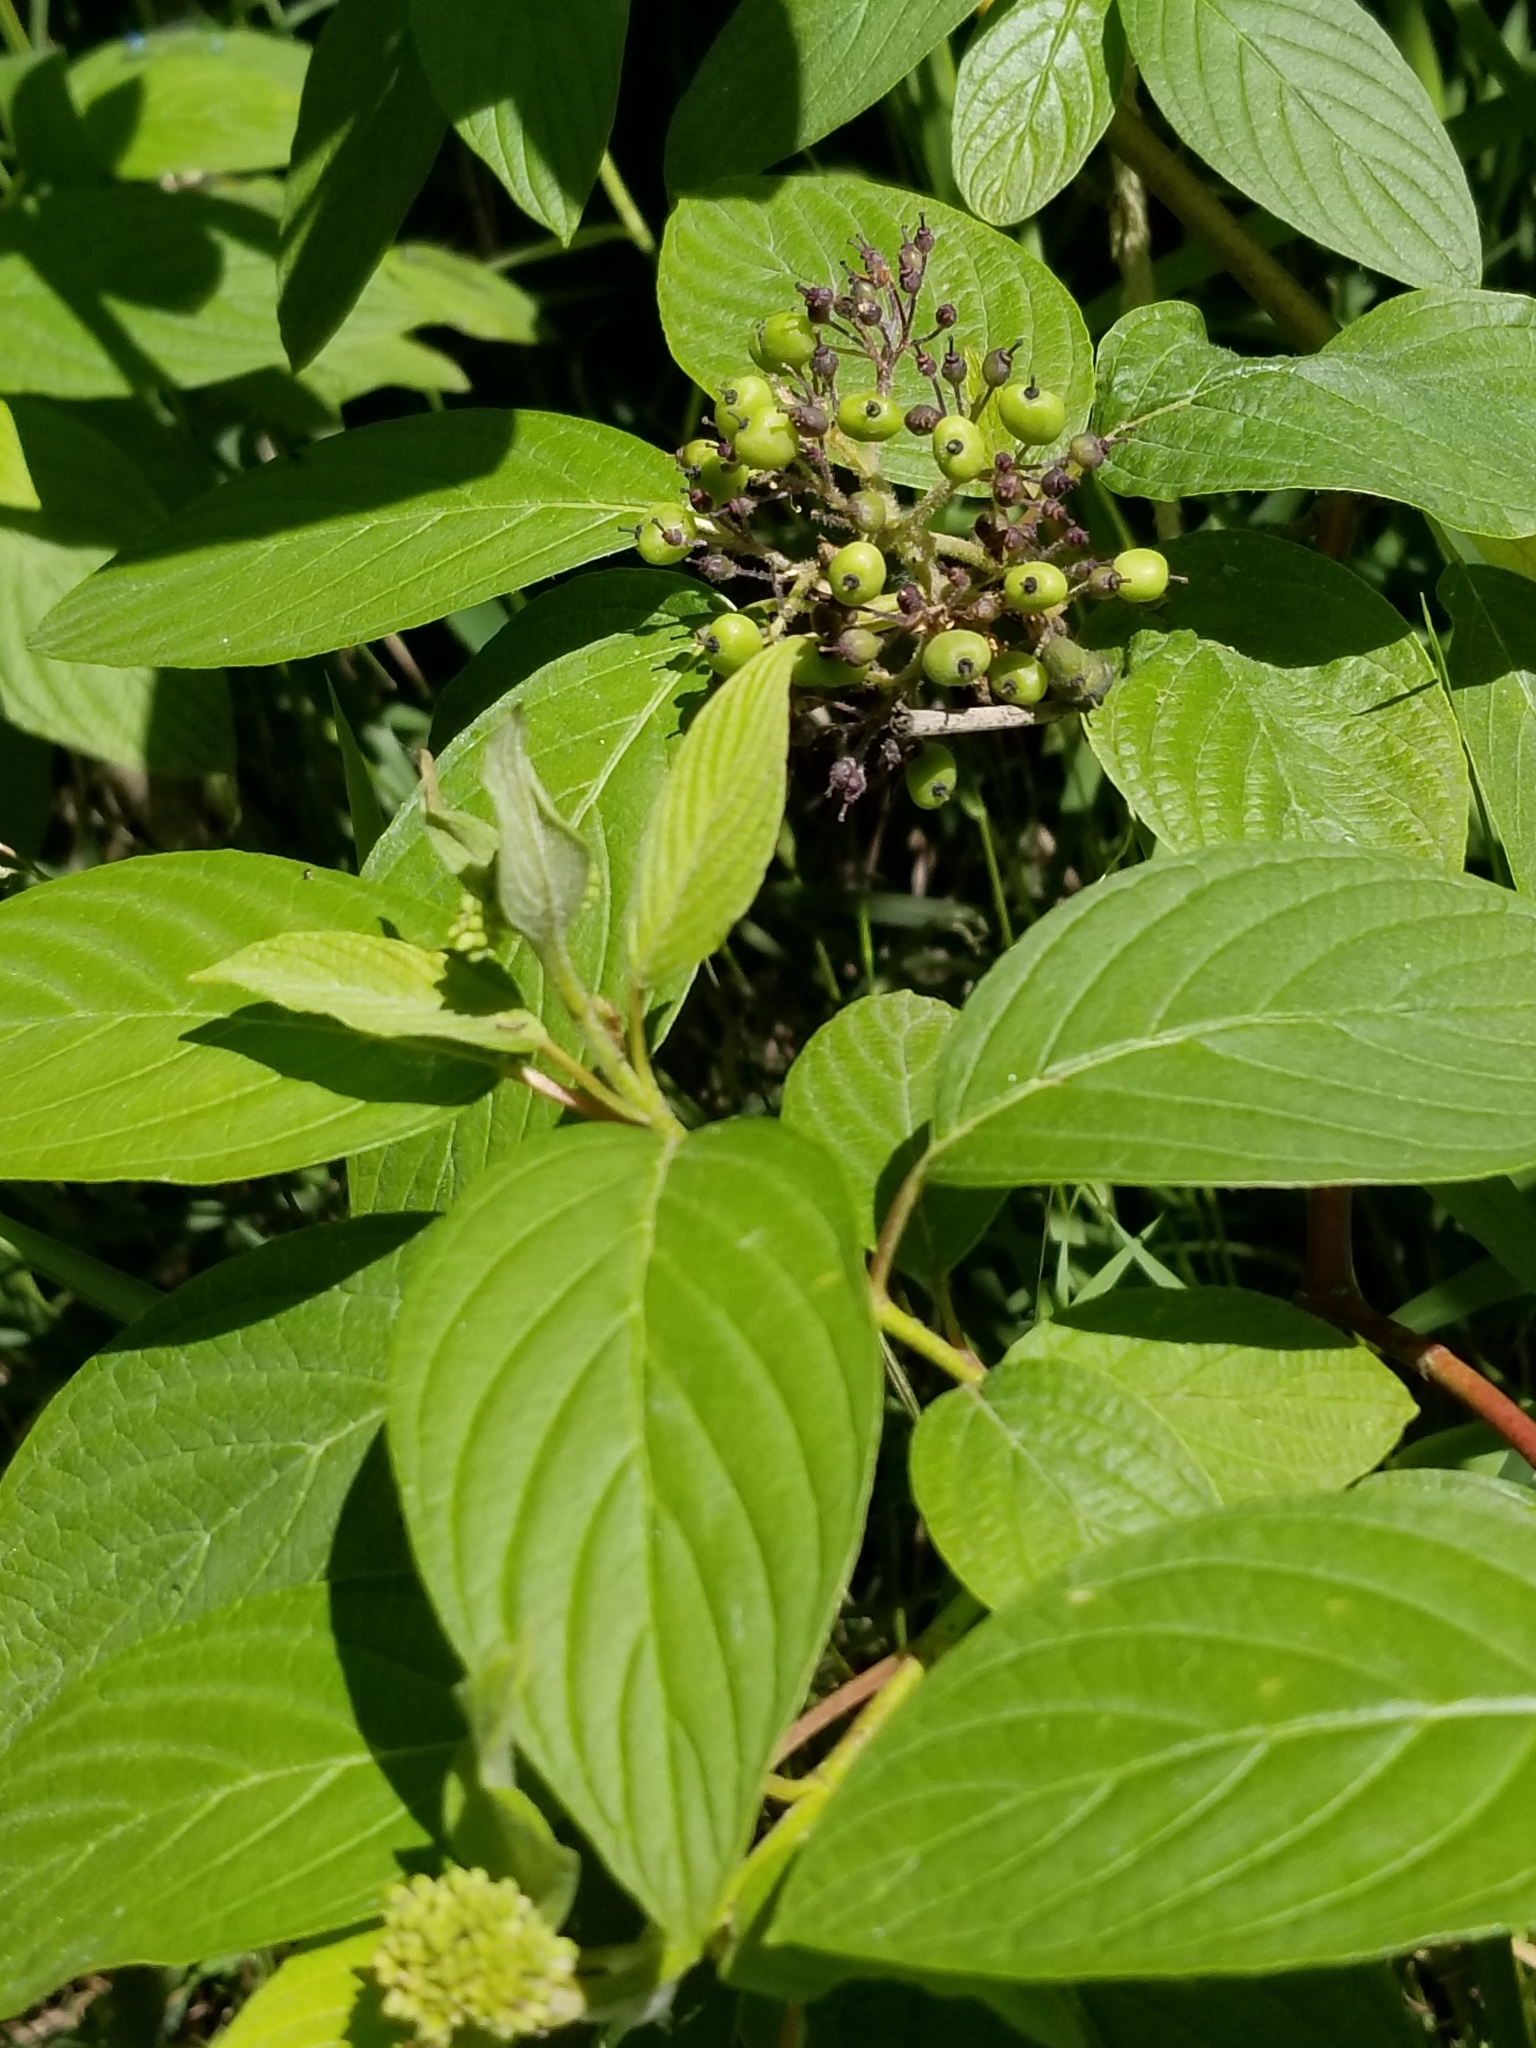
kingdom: Plantae
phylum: Tracheophyta
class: Magnoliopsida
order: Cornales
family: Cornaceae
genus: Cornus
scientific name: Cornus sericea
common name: Red-osier dogwood
